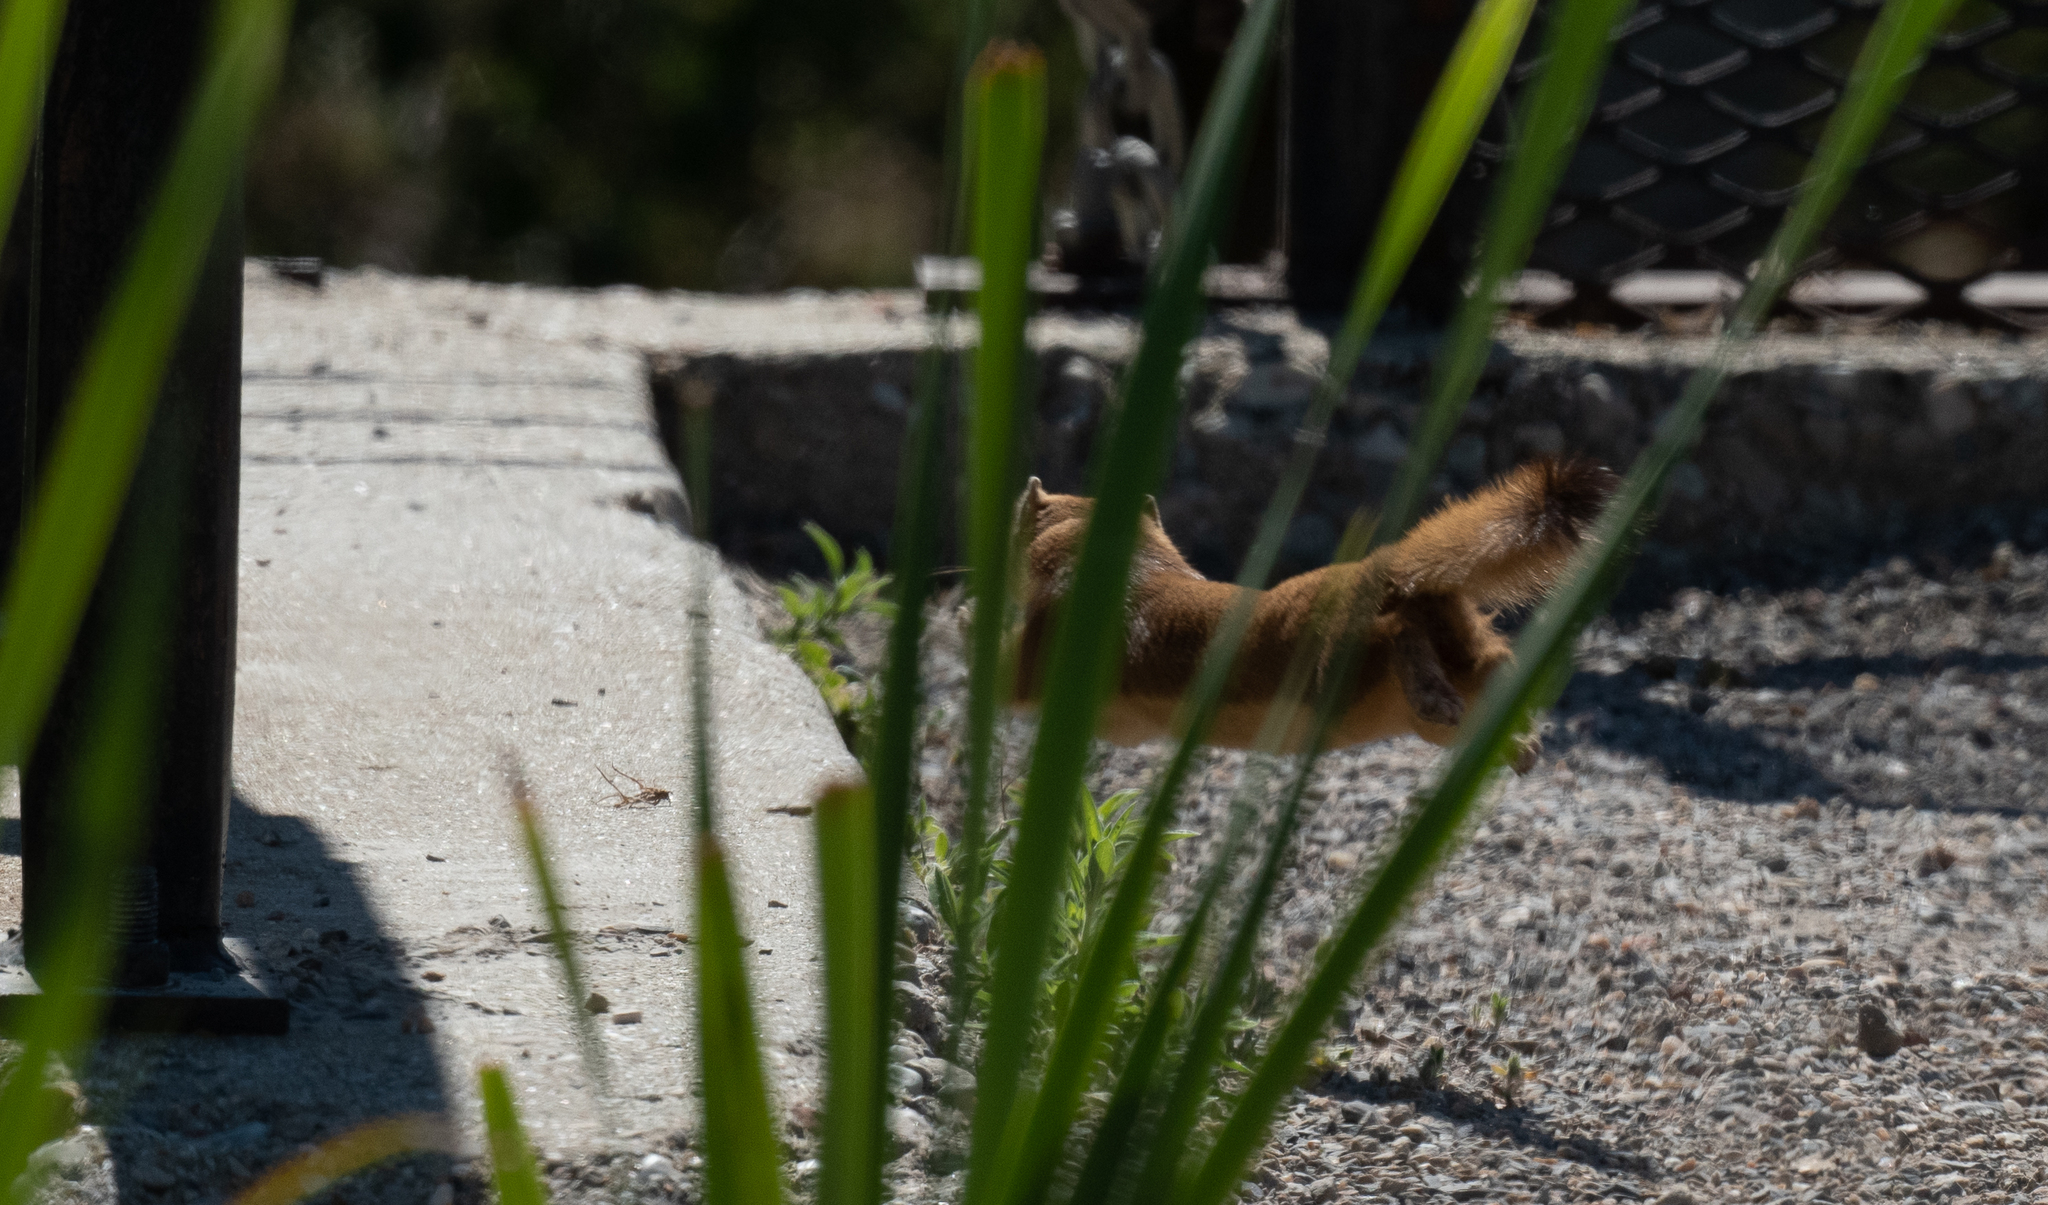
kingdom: Animalia
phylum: Chordata
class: Mammalia
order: Carnivora
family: Mustelidae
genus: Mustela
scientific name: Mustela
